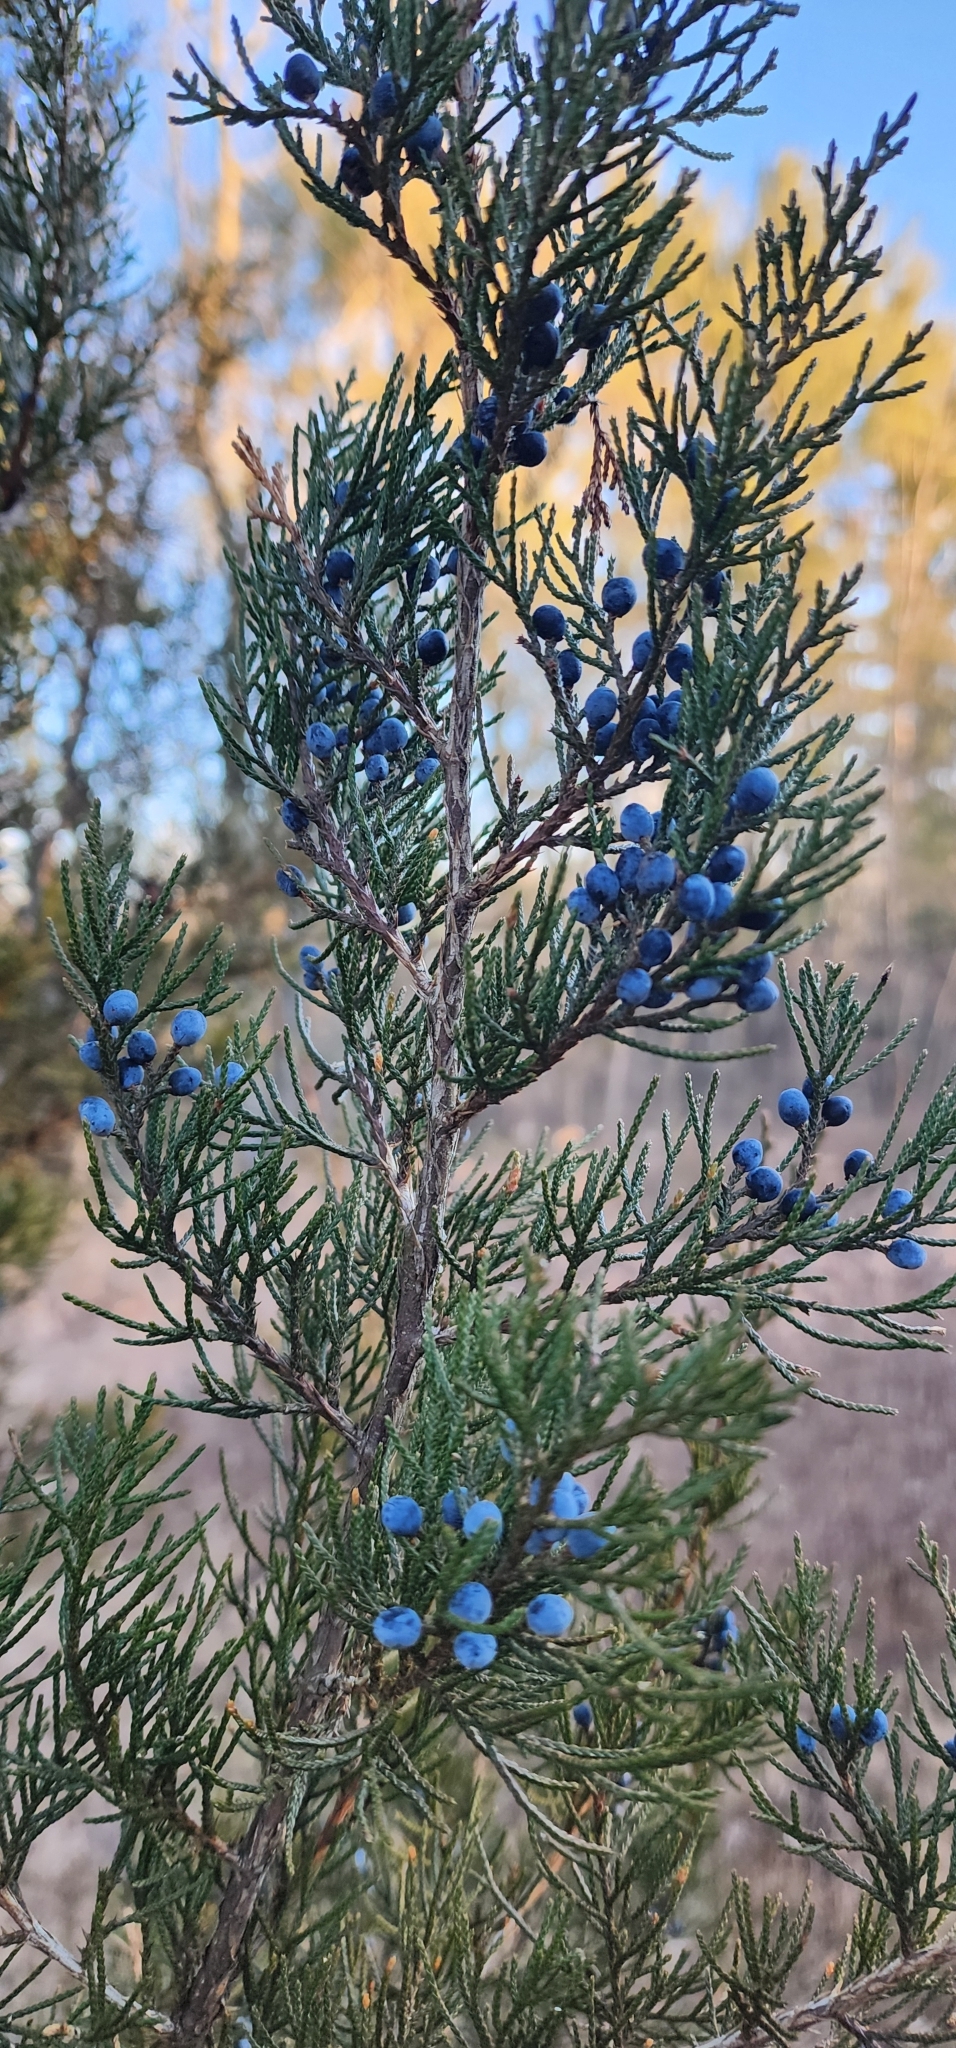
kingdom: Plantae
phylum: Tracheophyta
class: Pinopsida
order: Pinales
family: Cupressaceae
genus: Juniperus
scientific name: Juniperus virginiana
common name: Red juniper
